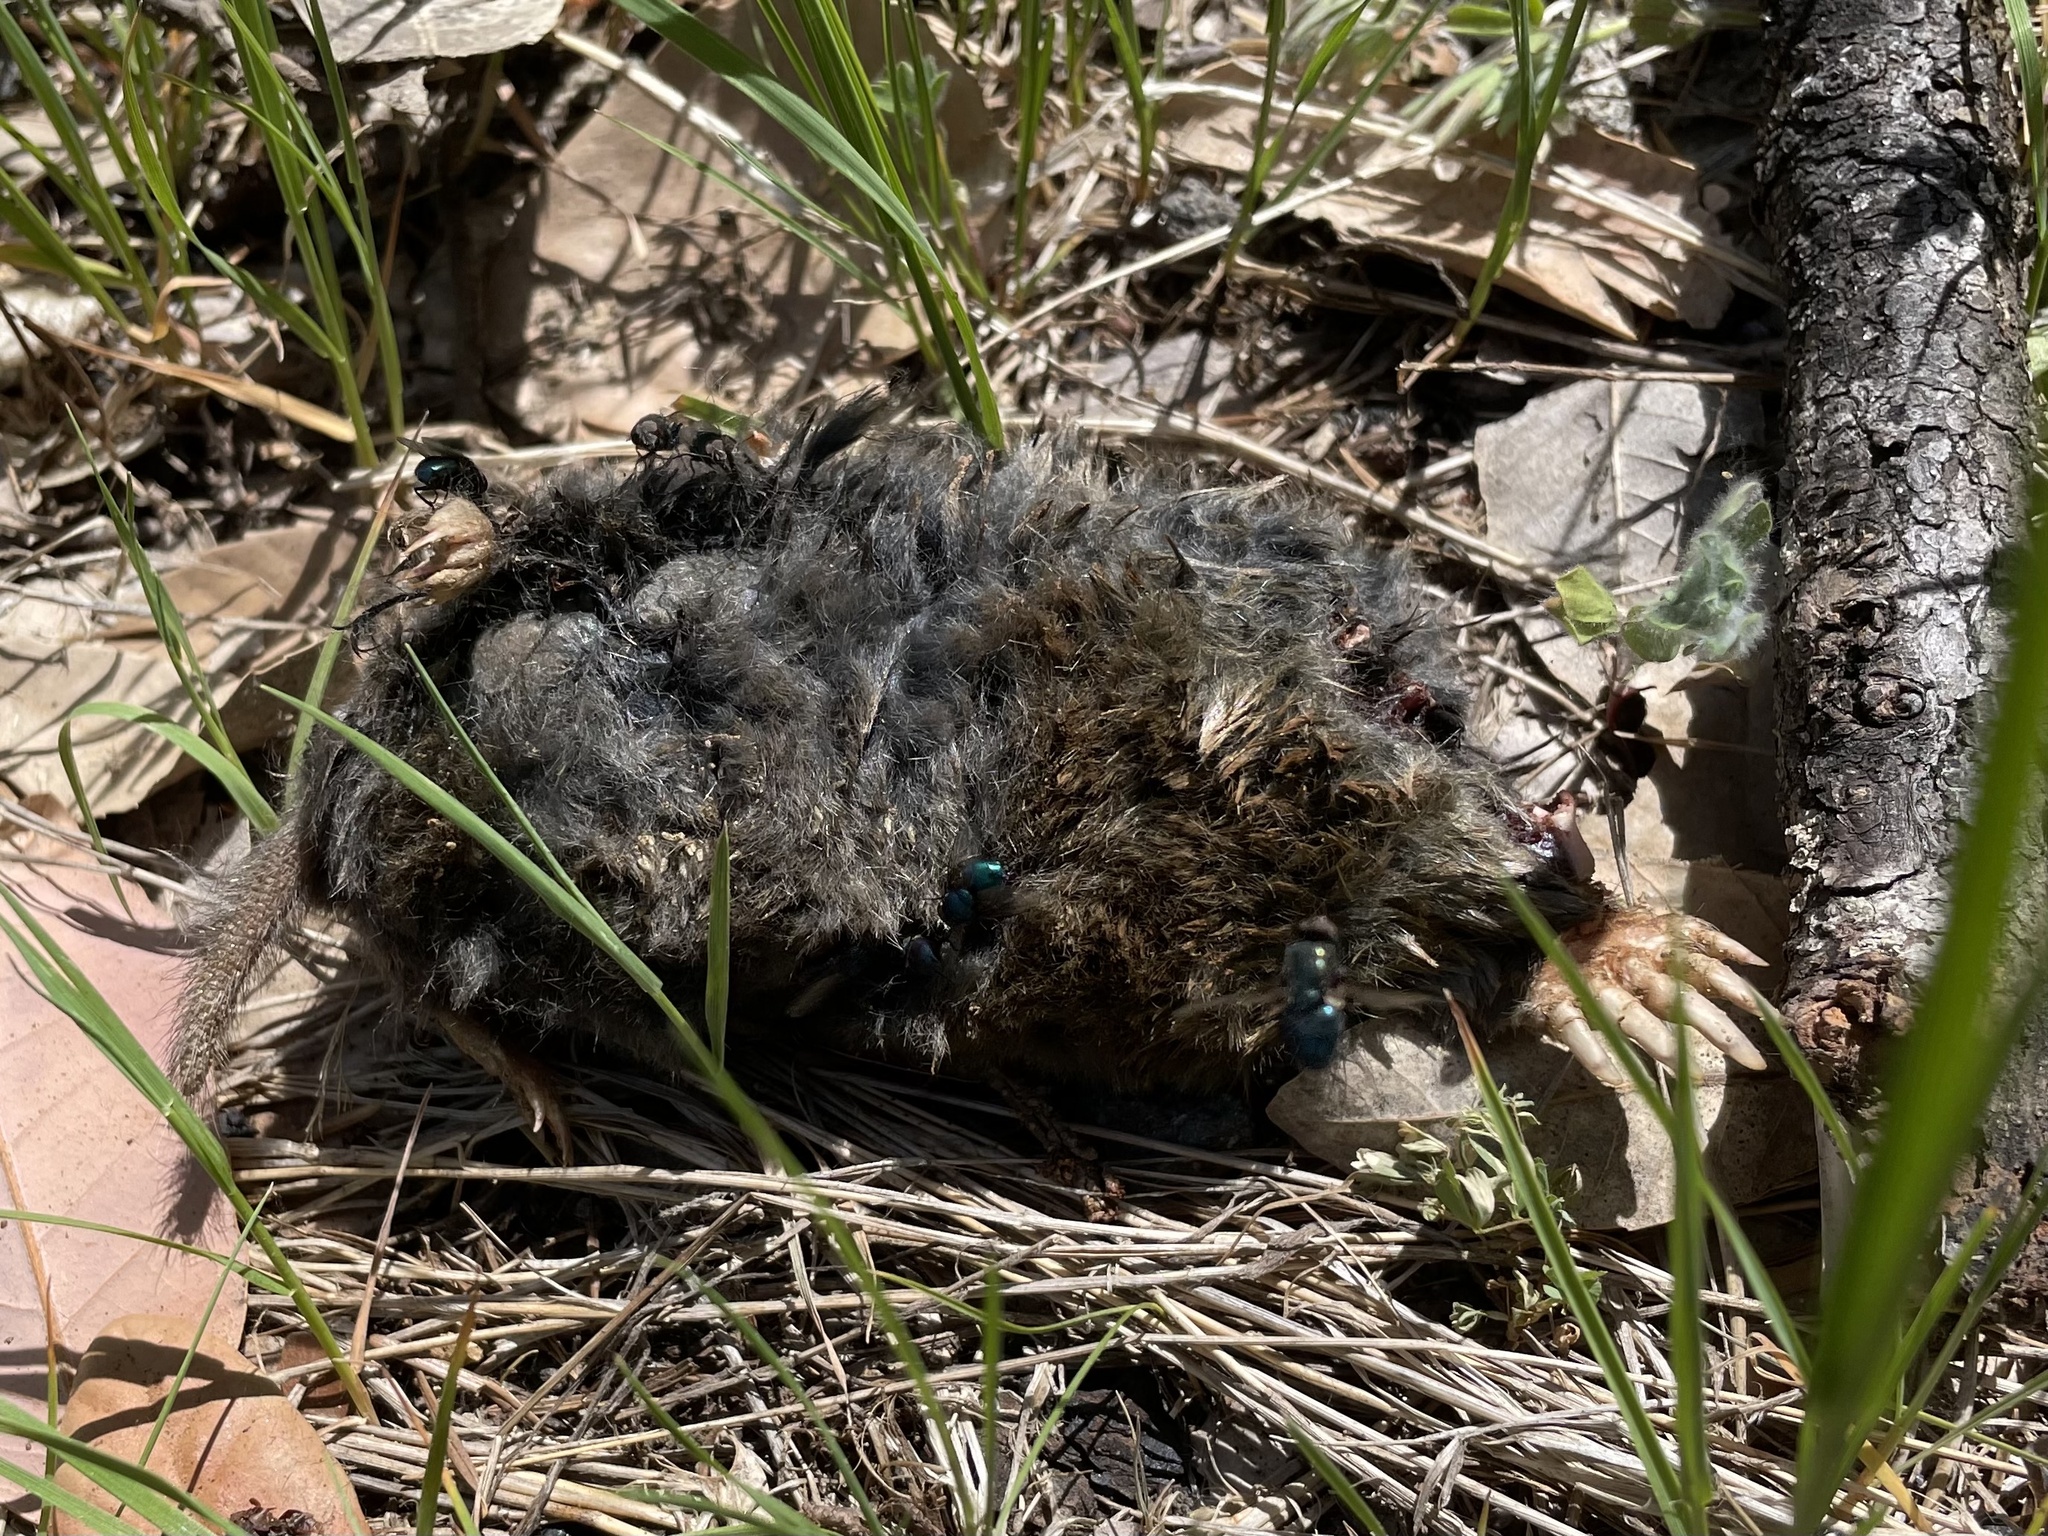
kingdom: Animalia
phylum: Chordata
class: Mammalia
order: Soricomorpha
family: Talpidae
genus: Scapanus
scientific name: Scapanus latimanus
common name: Broad-footed mole
